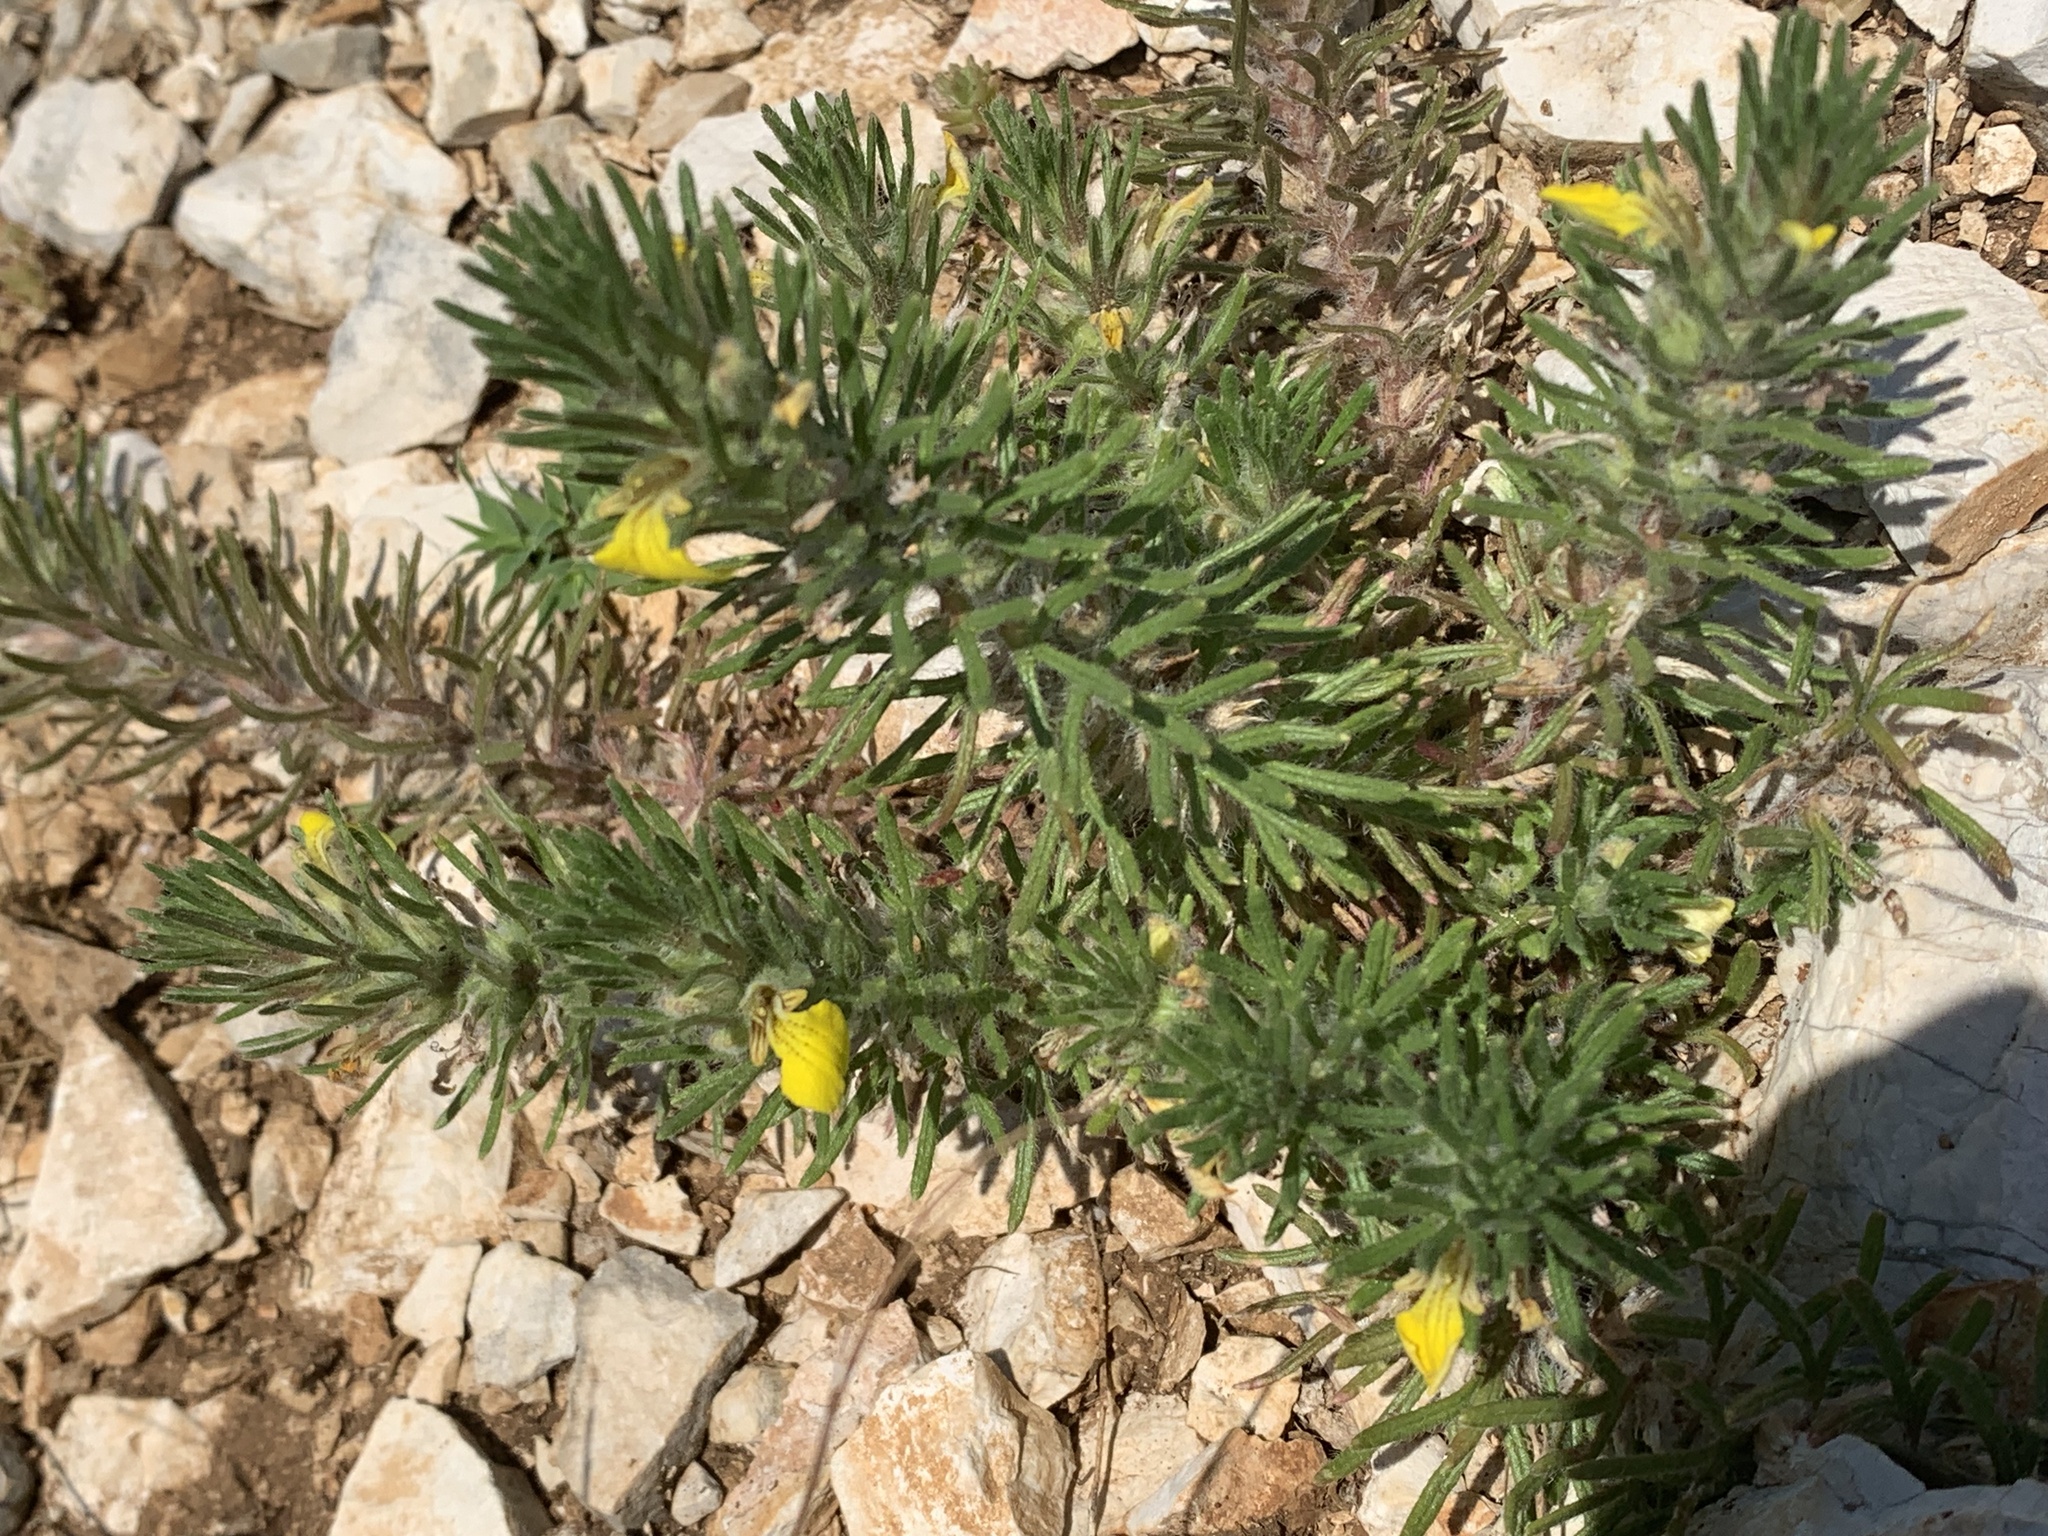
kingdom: Plantae
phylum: Tracheophyta
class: Magnoliopsida
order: Lamiales
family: Lamiaceae
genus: Ajuga
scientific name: Ajuga chamaepitys
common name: Ground-pine
